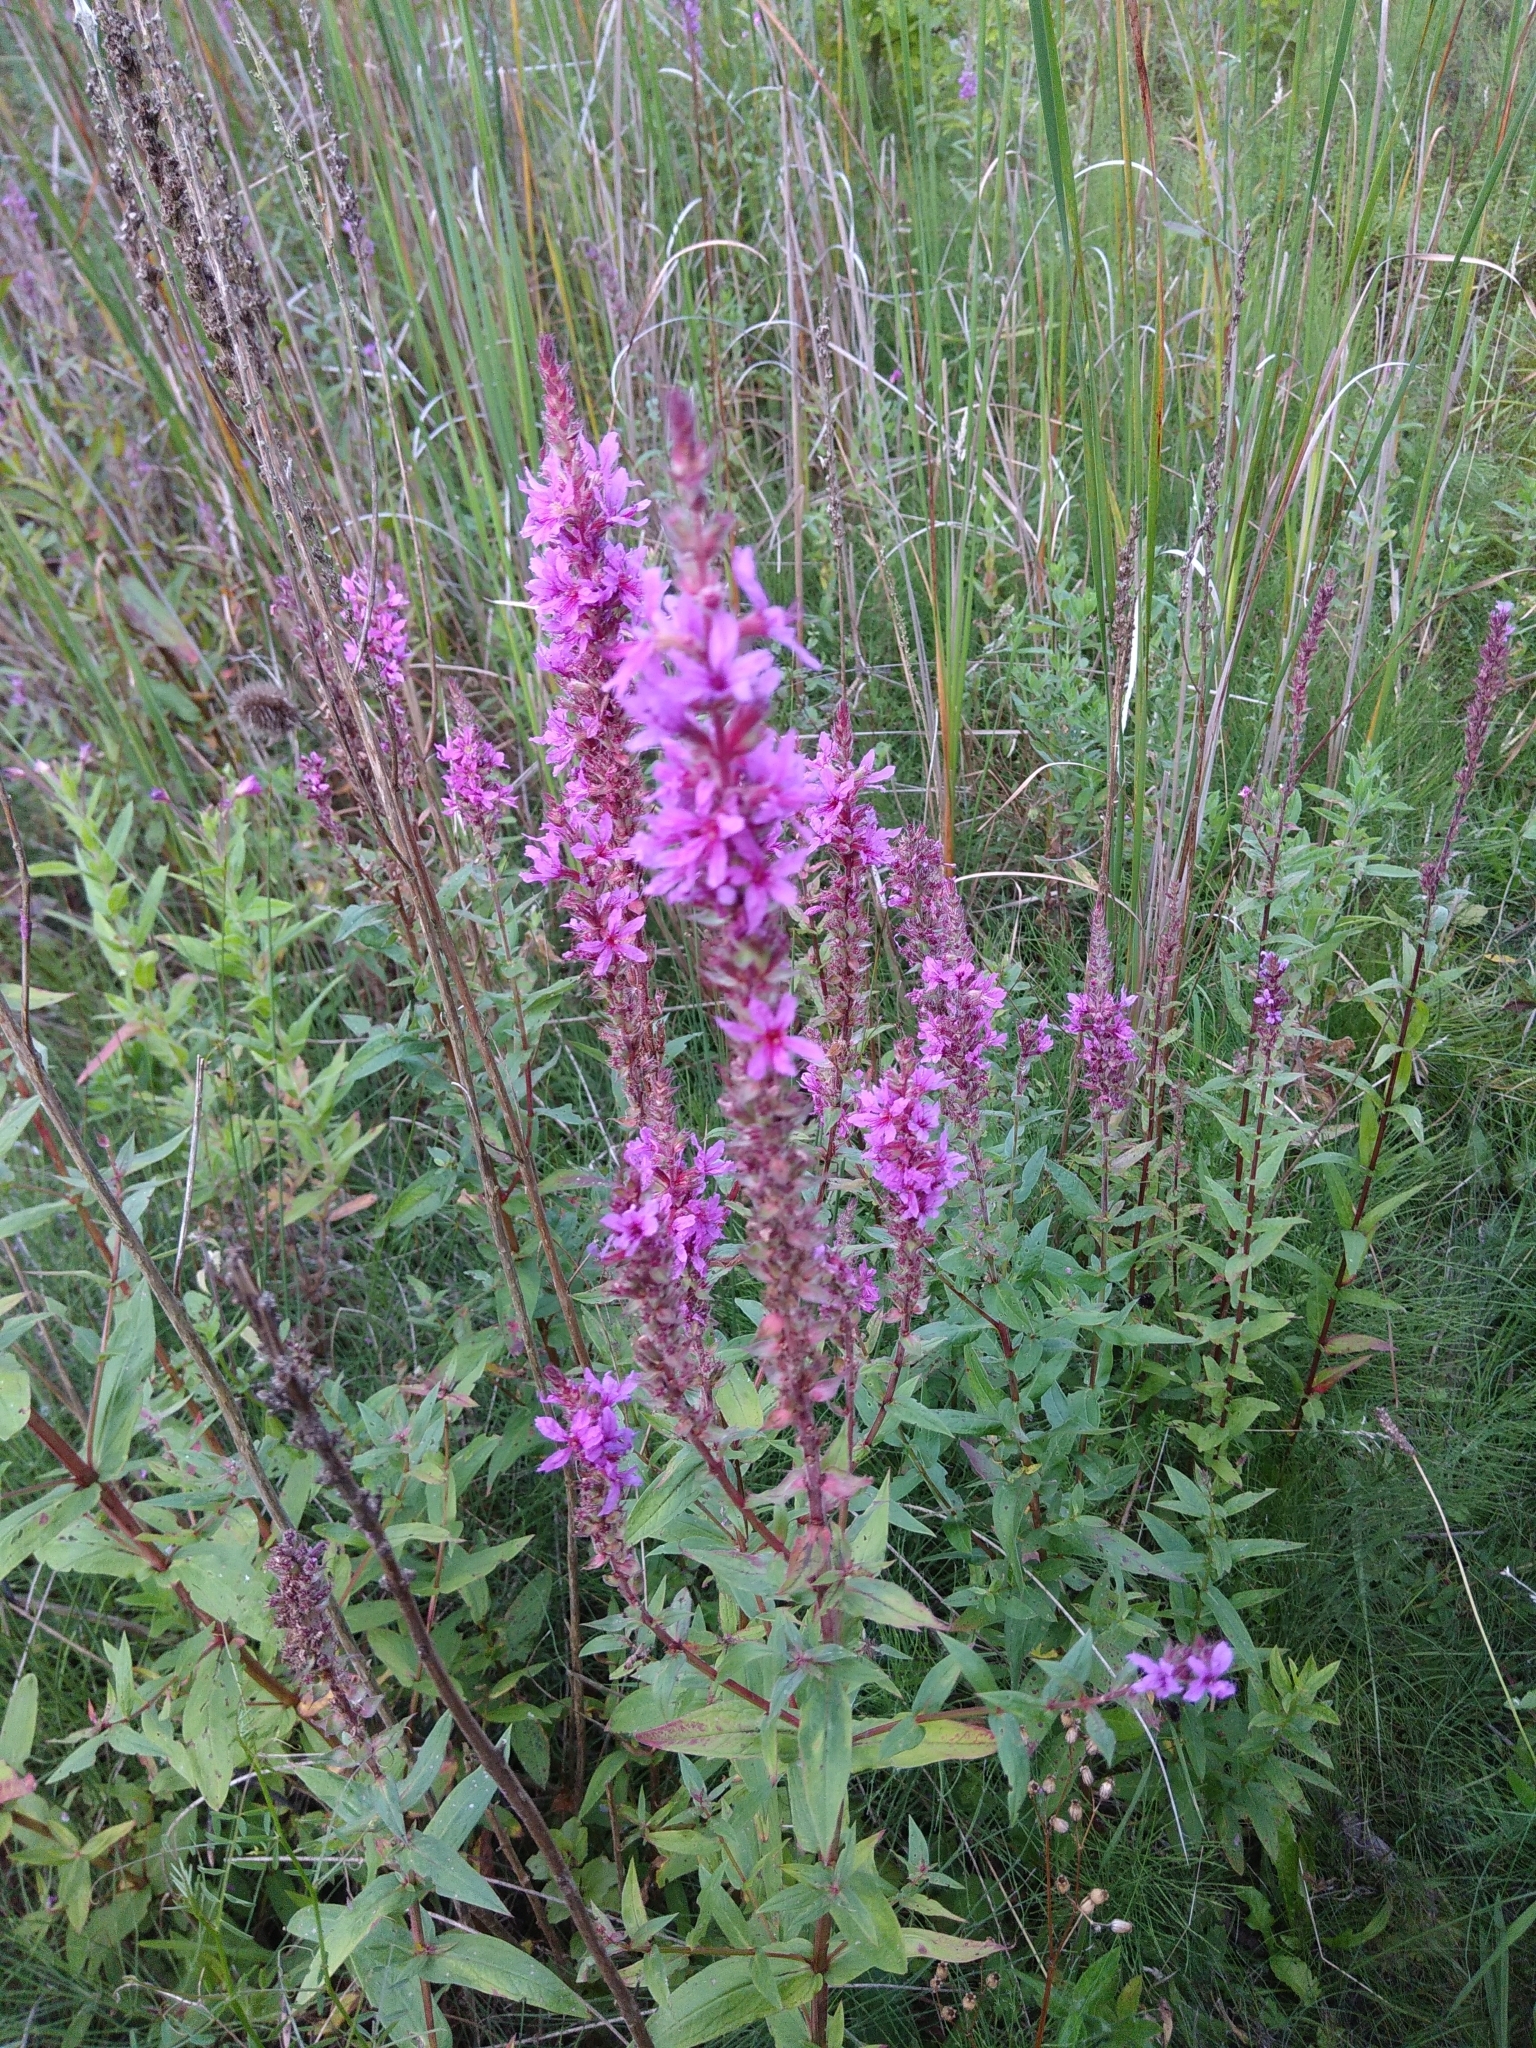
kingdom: Plantae
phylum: Tracheophyta
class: Magnoliopsida
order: Myrtales
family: Lythraceae
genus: Lythrum
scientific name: Lythrum salicaria
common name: Purple loosestrife
